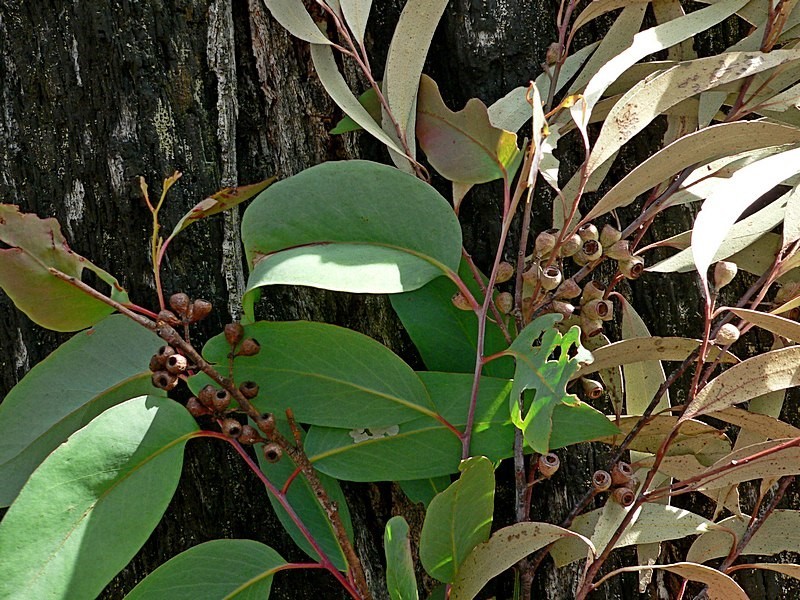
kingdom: Plantae
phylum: Tracheophyta
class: Magnoliopsida
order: Myrtales
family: Myrtaceae
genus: Eucalyptus
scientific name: Eucalyptus sieberi
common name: Black-ash
